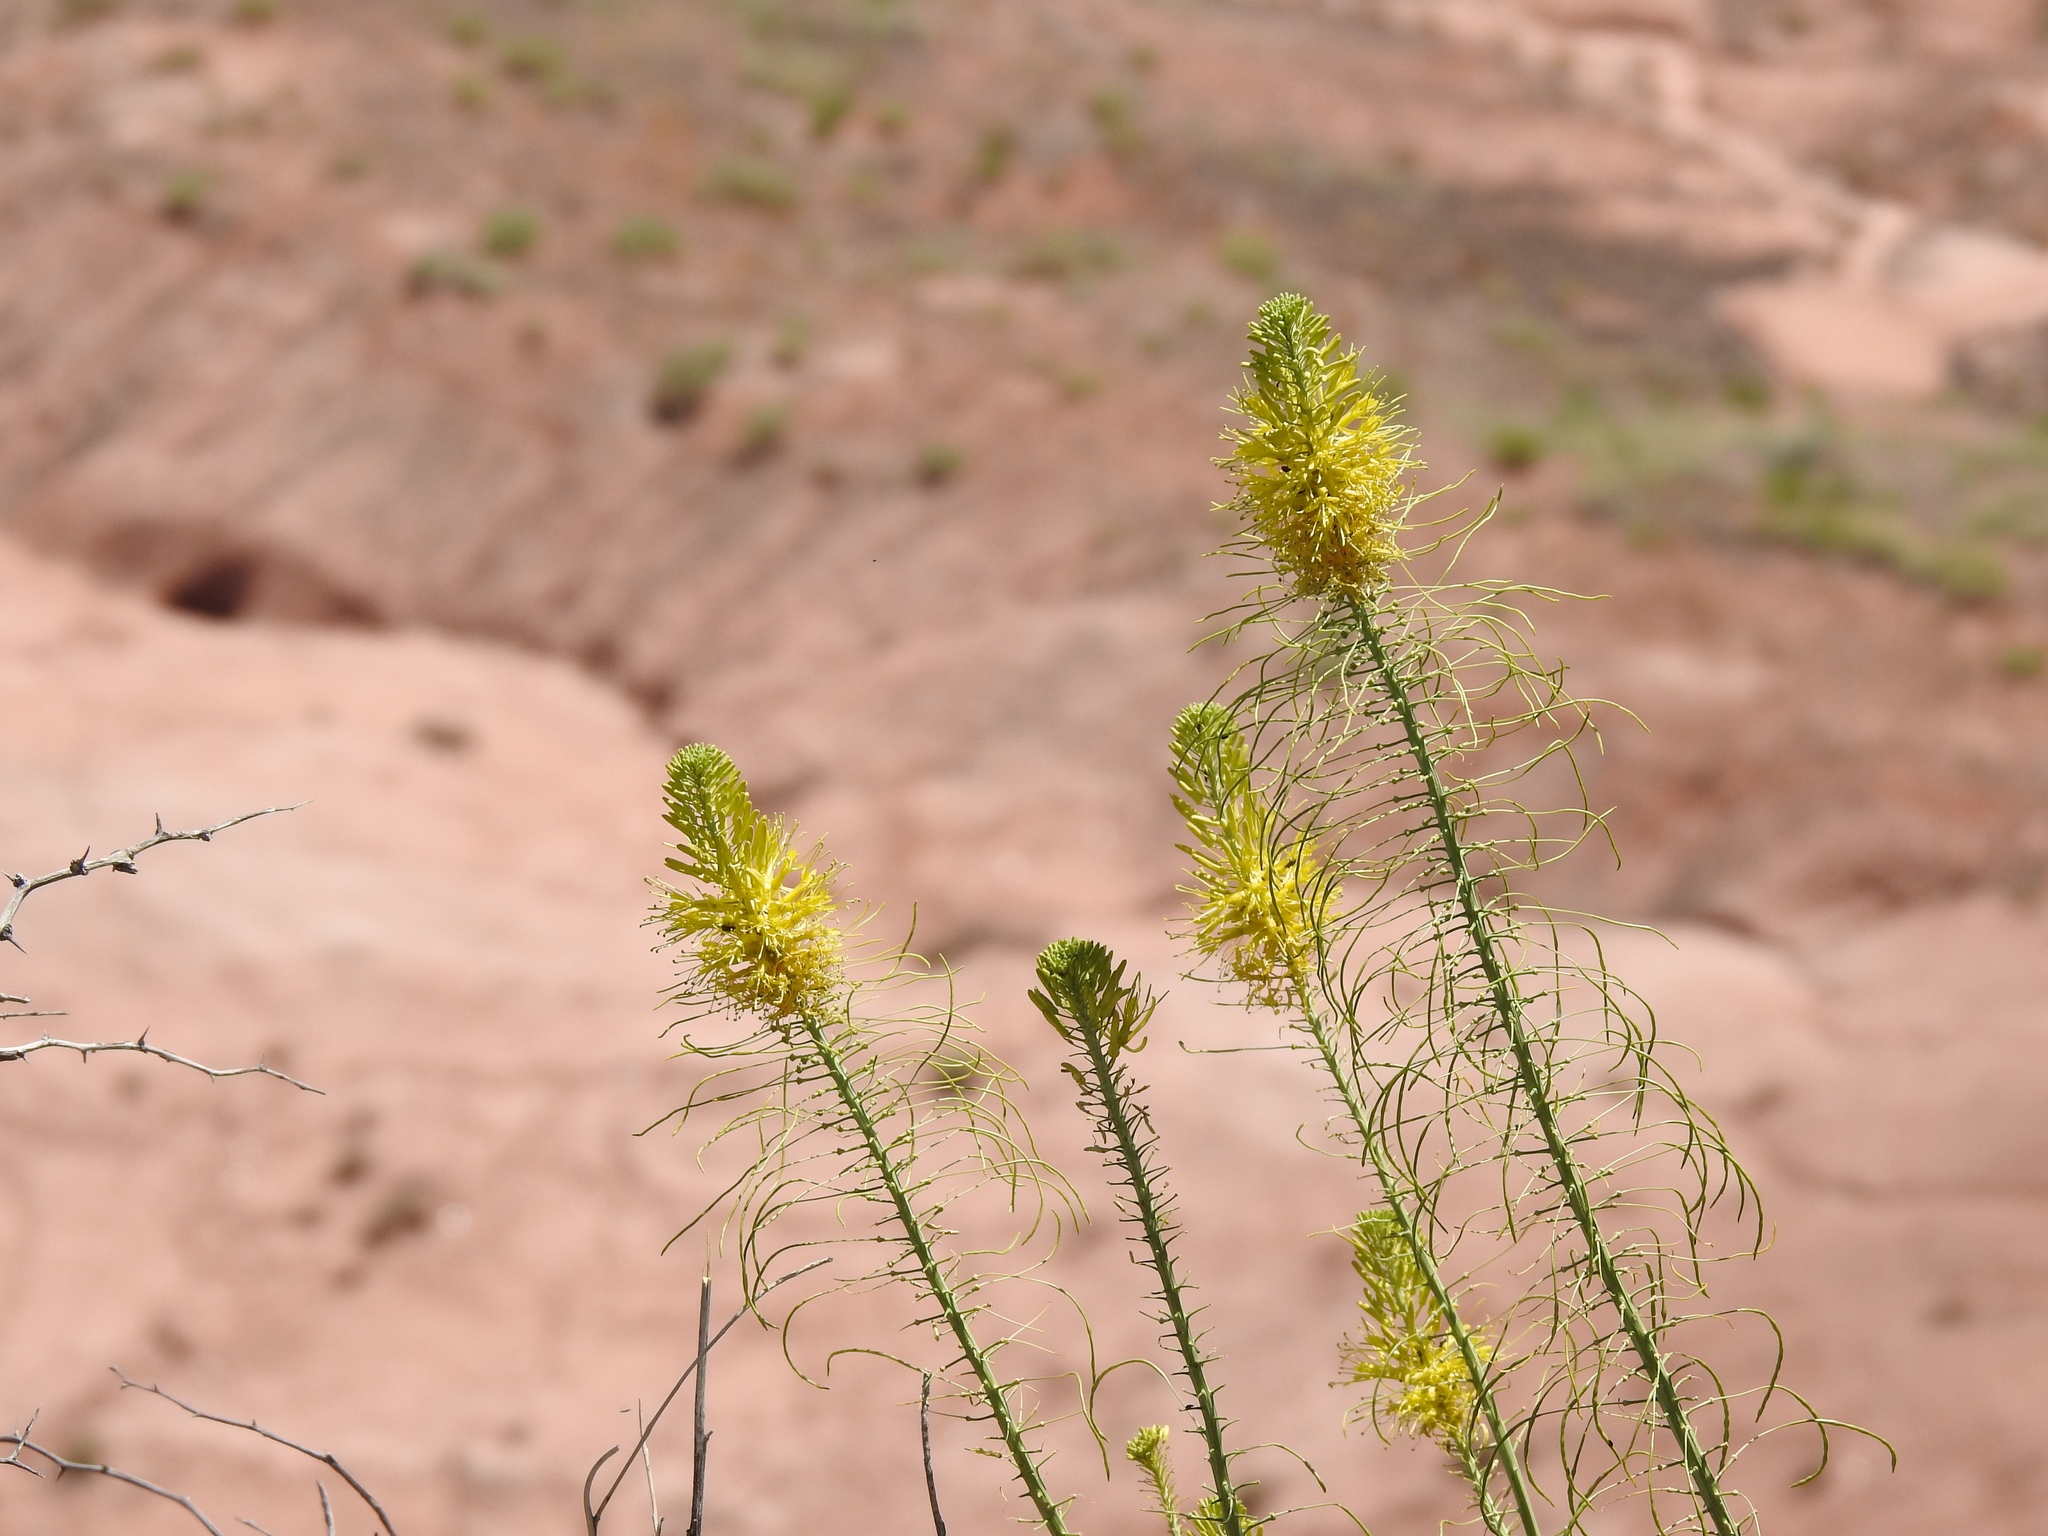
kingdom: Plantae
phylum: Tracheophyta
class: Magnoliopsida
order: Brassicales
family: Brassicaceae
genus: Stanleya
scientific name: Stanleya pinnata
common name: Prince's-plume
